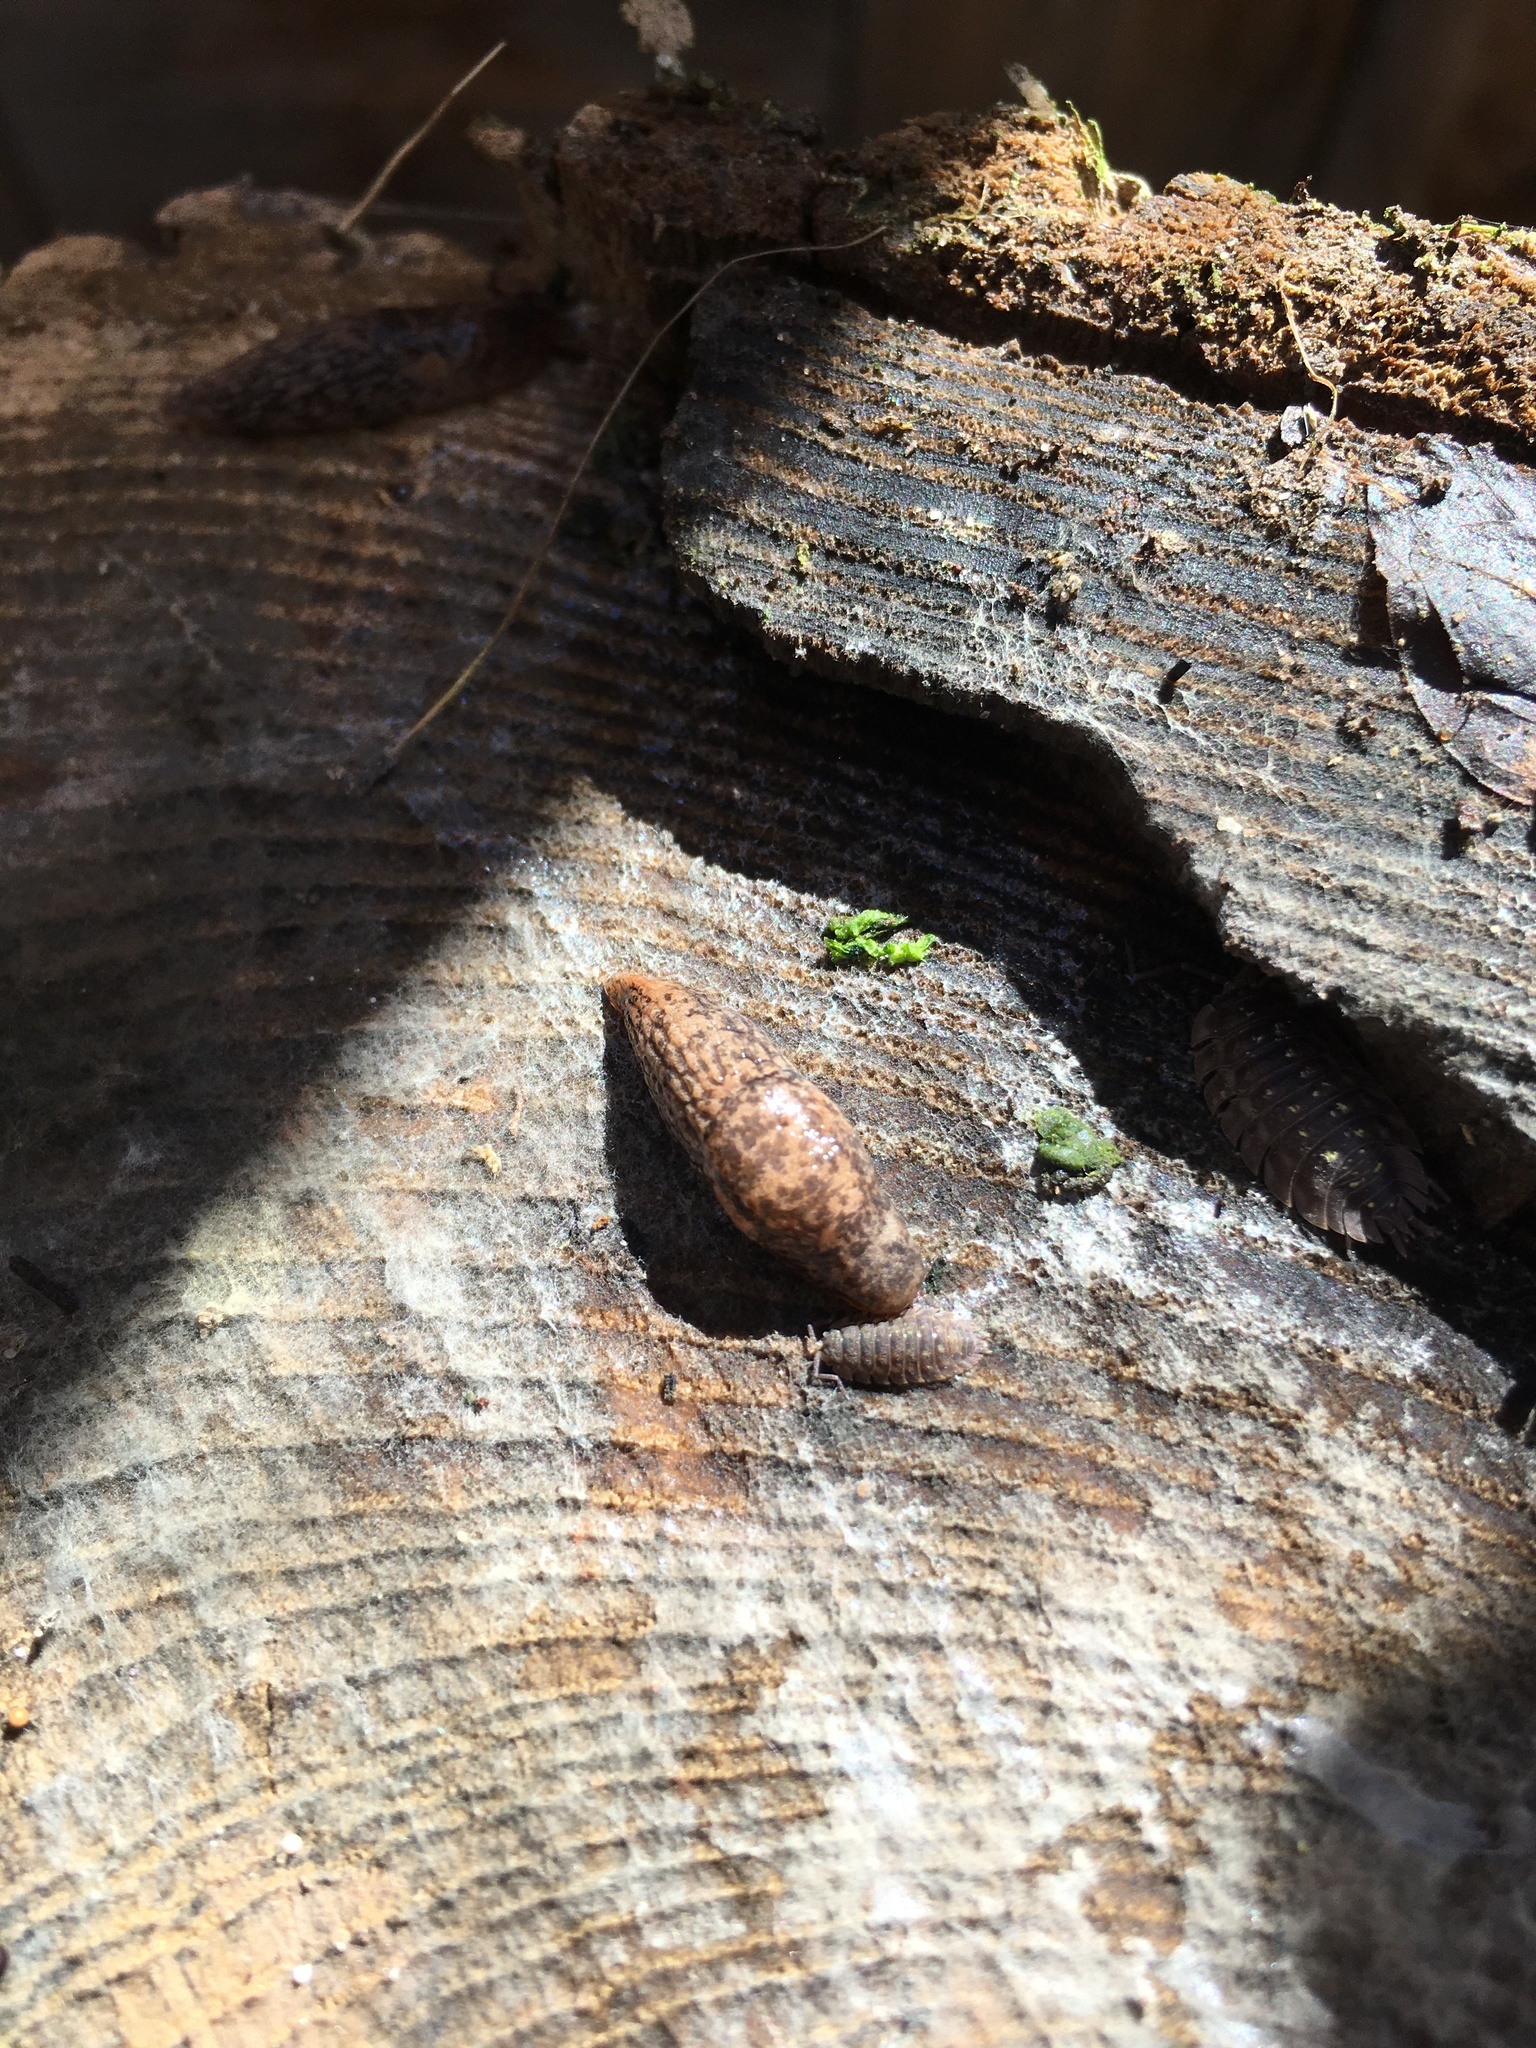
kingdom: Animalia
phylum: Mollusca
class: Gastropoda
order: Stylommatophora
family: Agriolimacidae
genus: Deroceras
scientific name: Deroceras reticulatum
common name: Gray field slug
